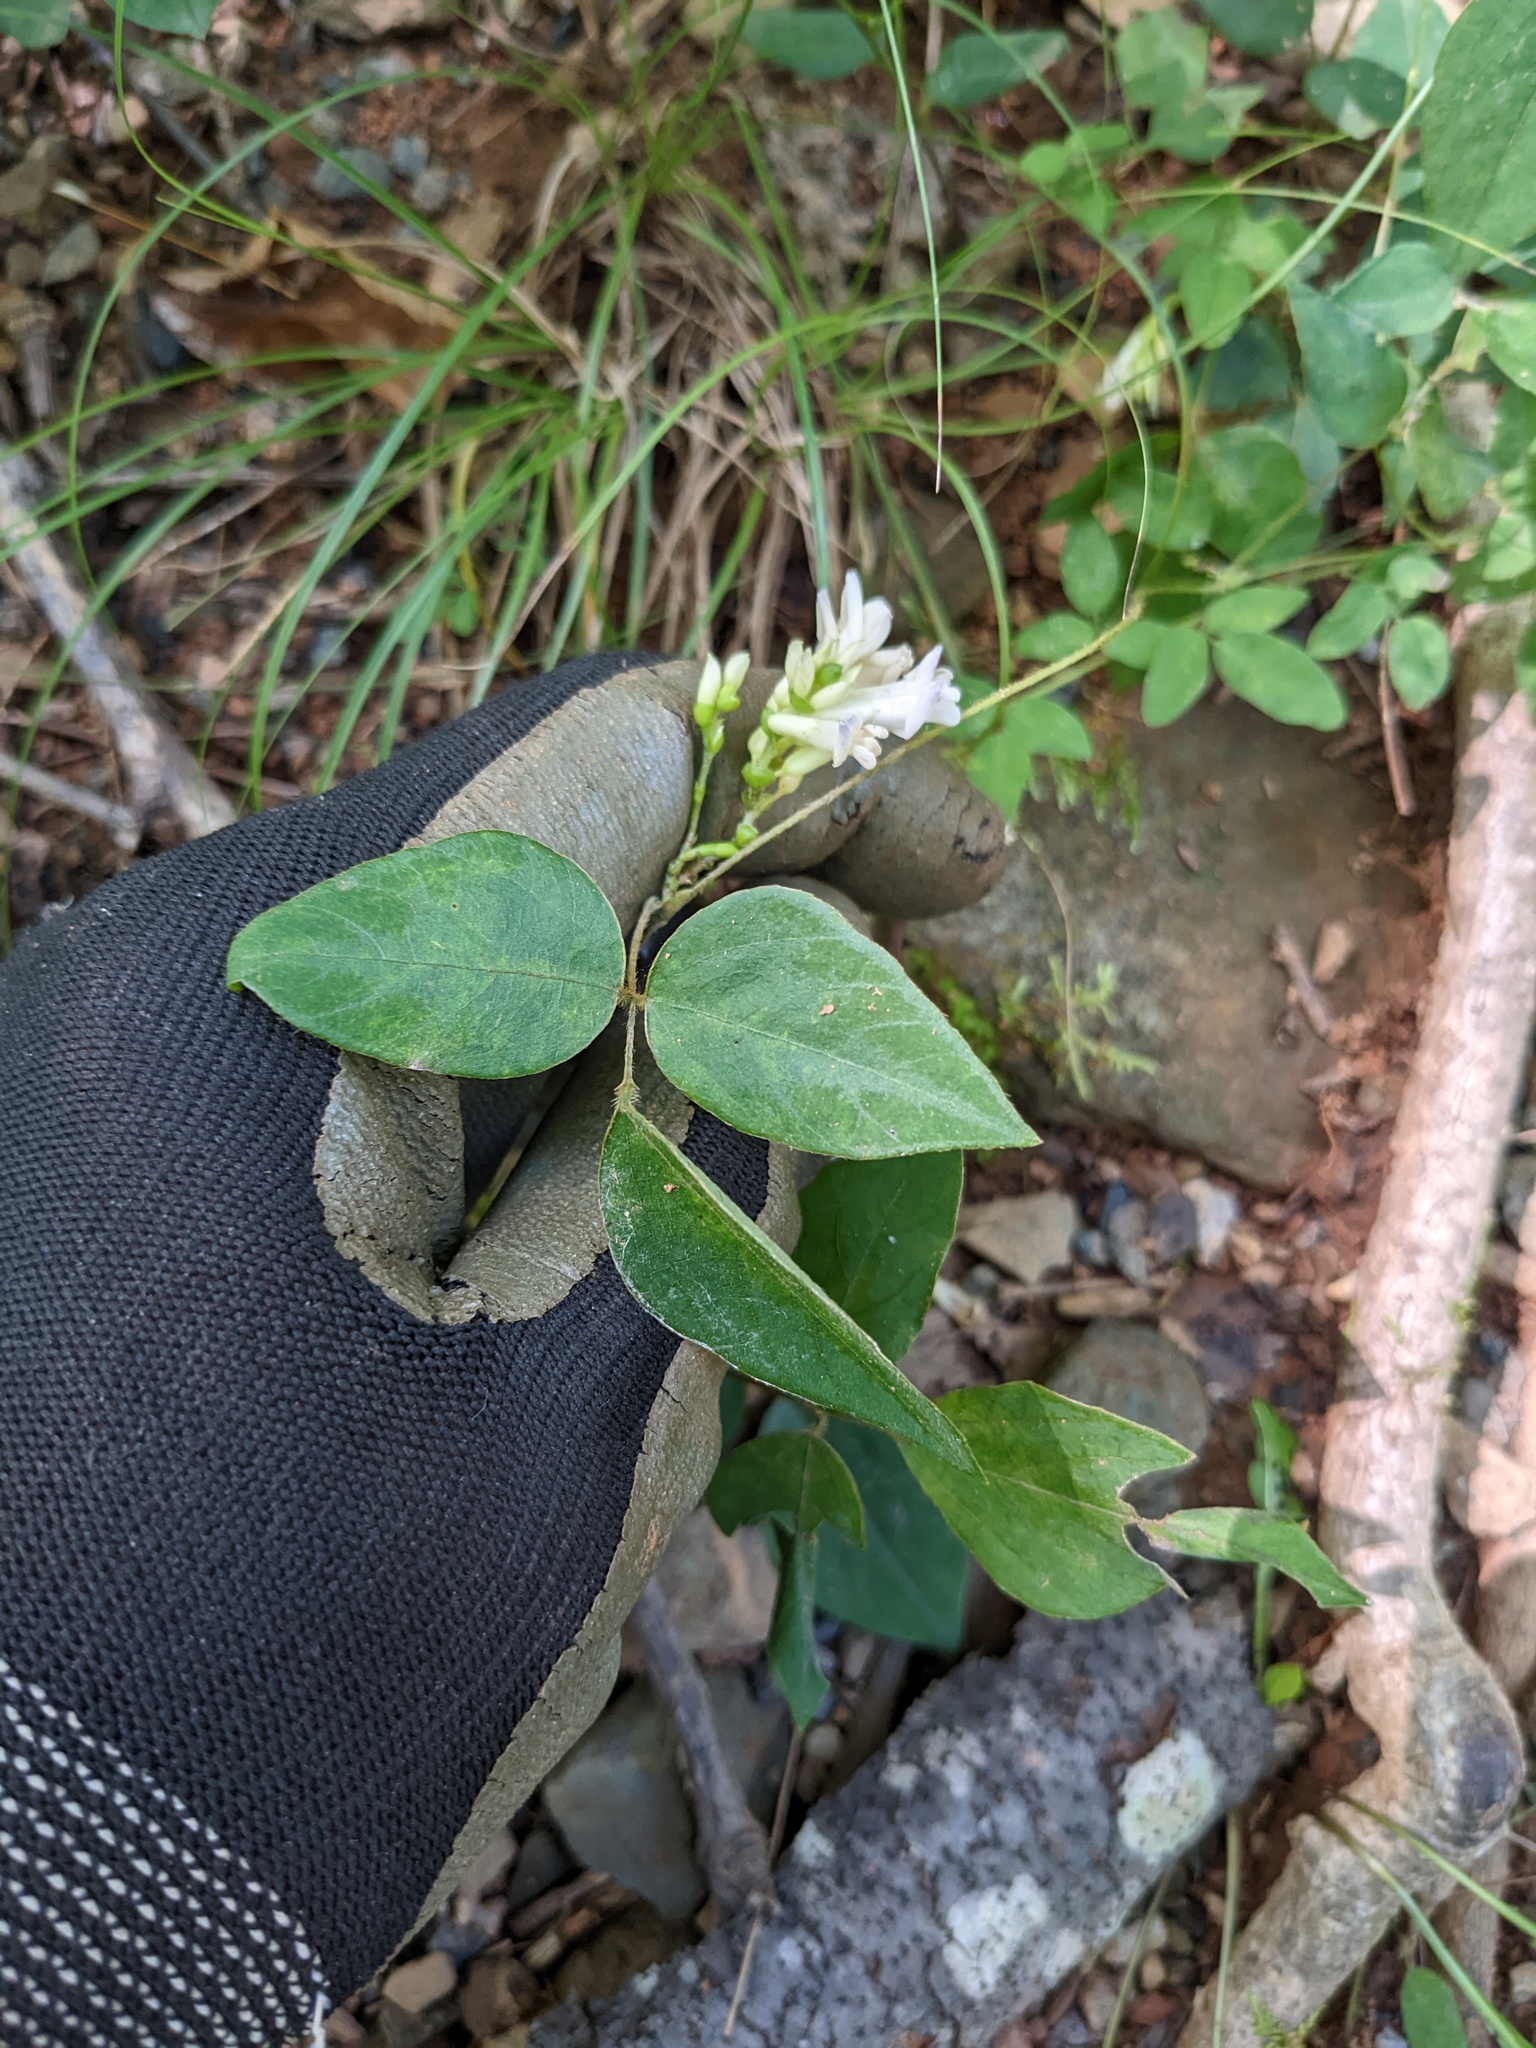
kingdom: Plantae
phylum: Tracheophyta
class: Magnoliopsida
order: Fabales
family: Fabaceae
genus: Amphicarpaea
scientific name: Amphicarpaea bracteata
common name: American hog peanut
